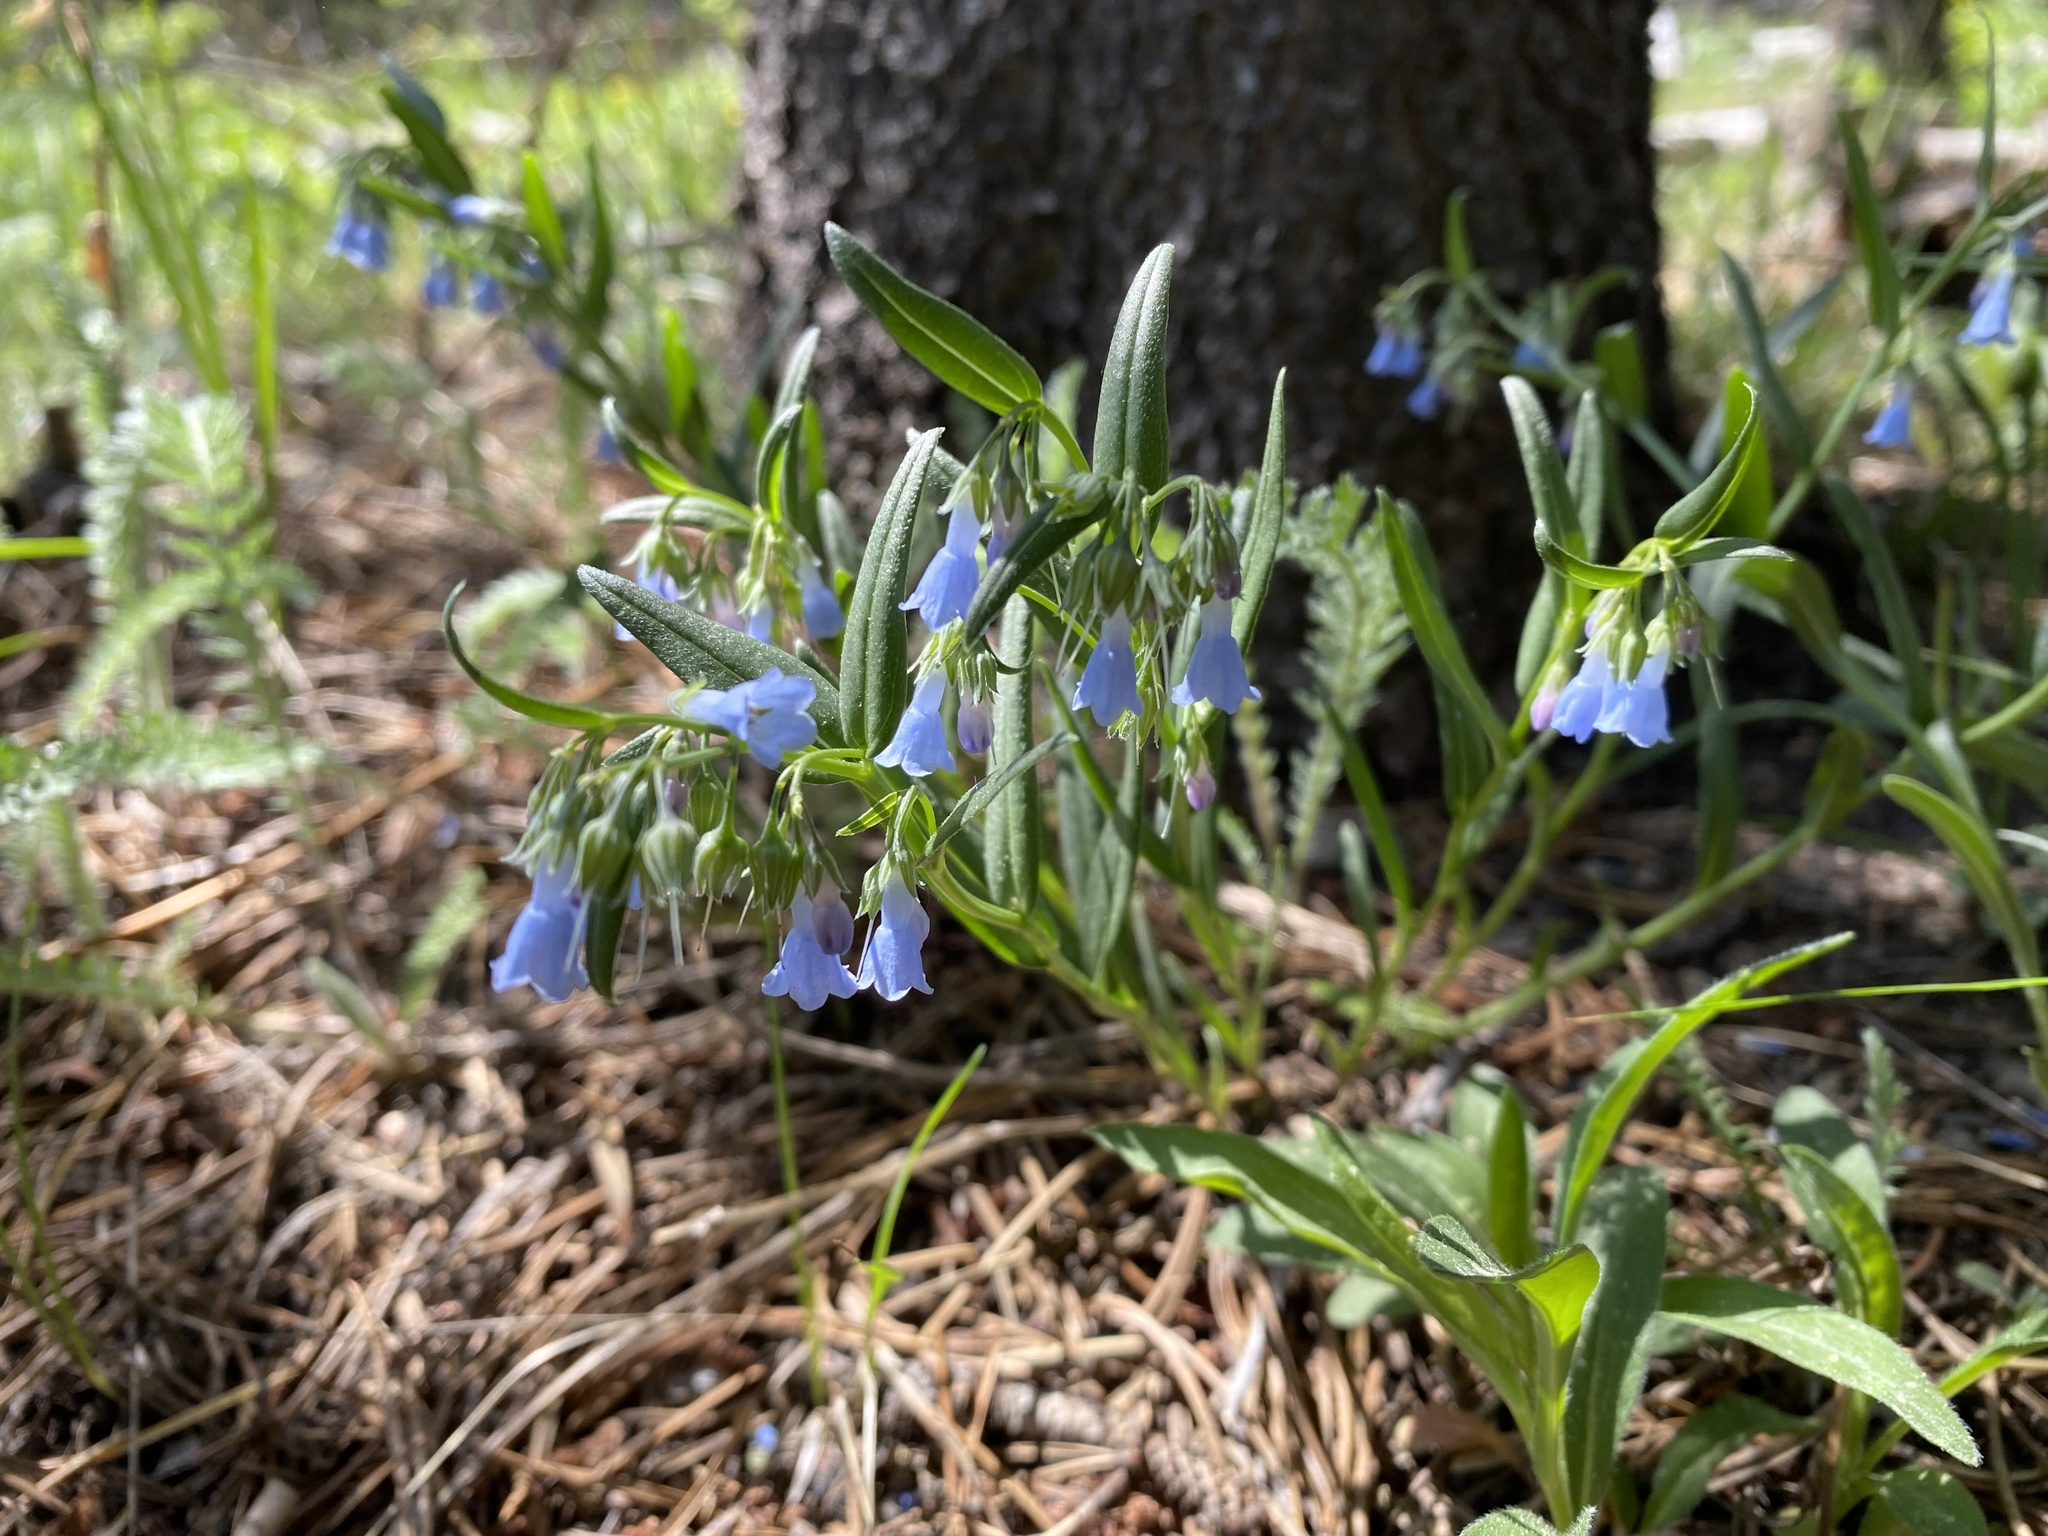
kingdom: Plantae
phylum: Tracheophyta
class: Magnoliopsida
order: Boraginales
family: Boraginaceae
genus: Mertensia
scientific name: Mertensia lanceolata
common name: Lance-leaved bluebells
